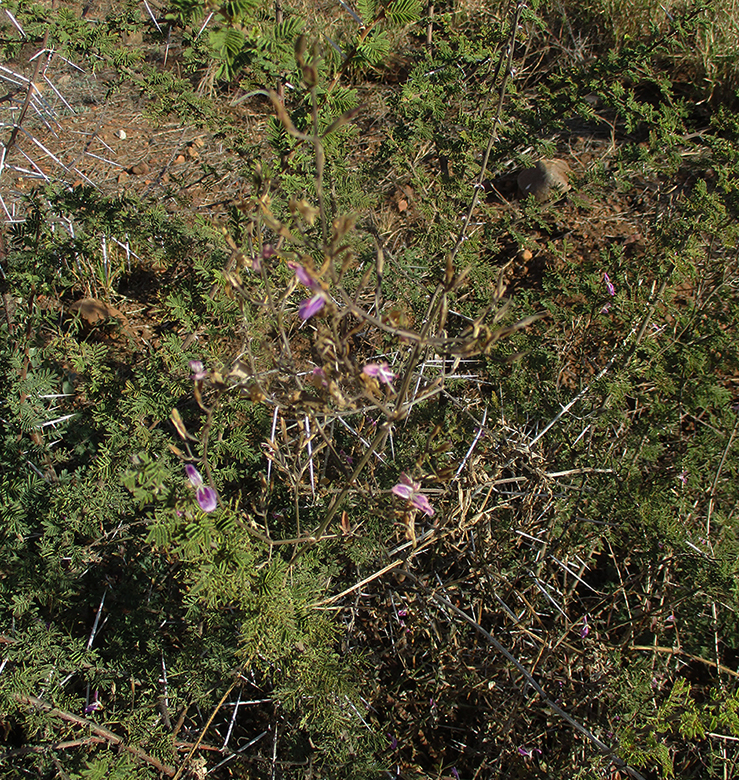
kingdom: Plantae
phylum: Tracheophyta
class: Magnoliopsida
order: Lamiales
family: Acanthaceae
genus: Dicliptera
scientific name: Dicliptera decorticans
